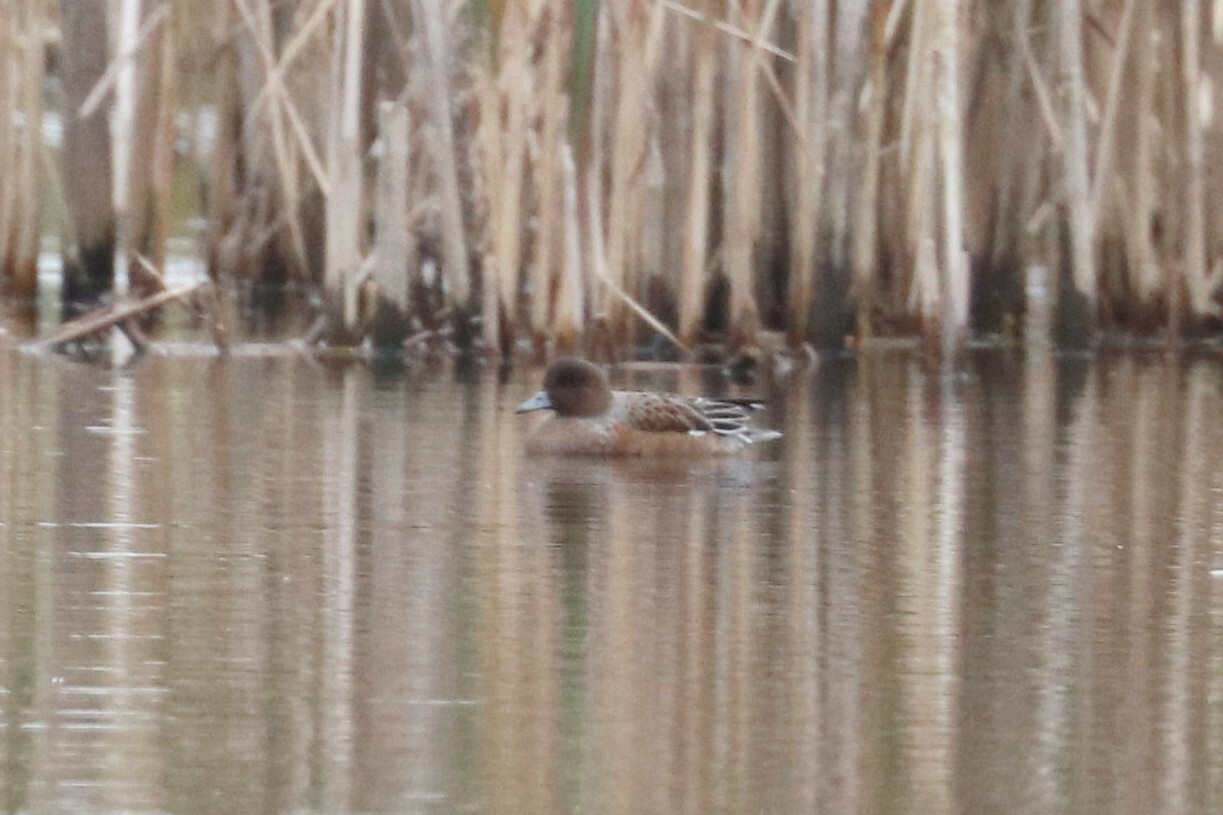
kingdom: Animalia
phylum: Chordata
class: Aves
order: Anseriformes
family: Anatidae
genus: Mareca
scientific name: Mareca penelope
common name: Eurasian wigeon
